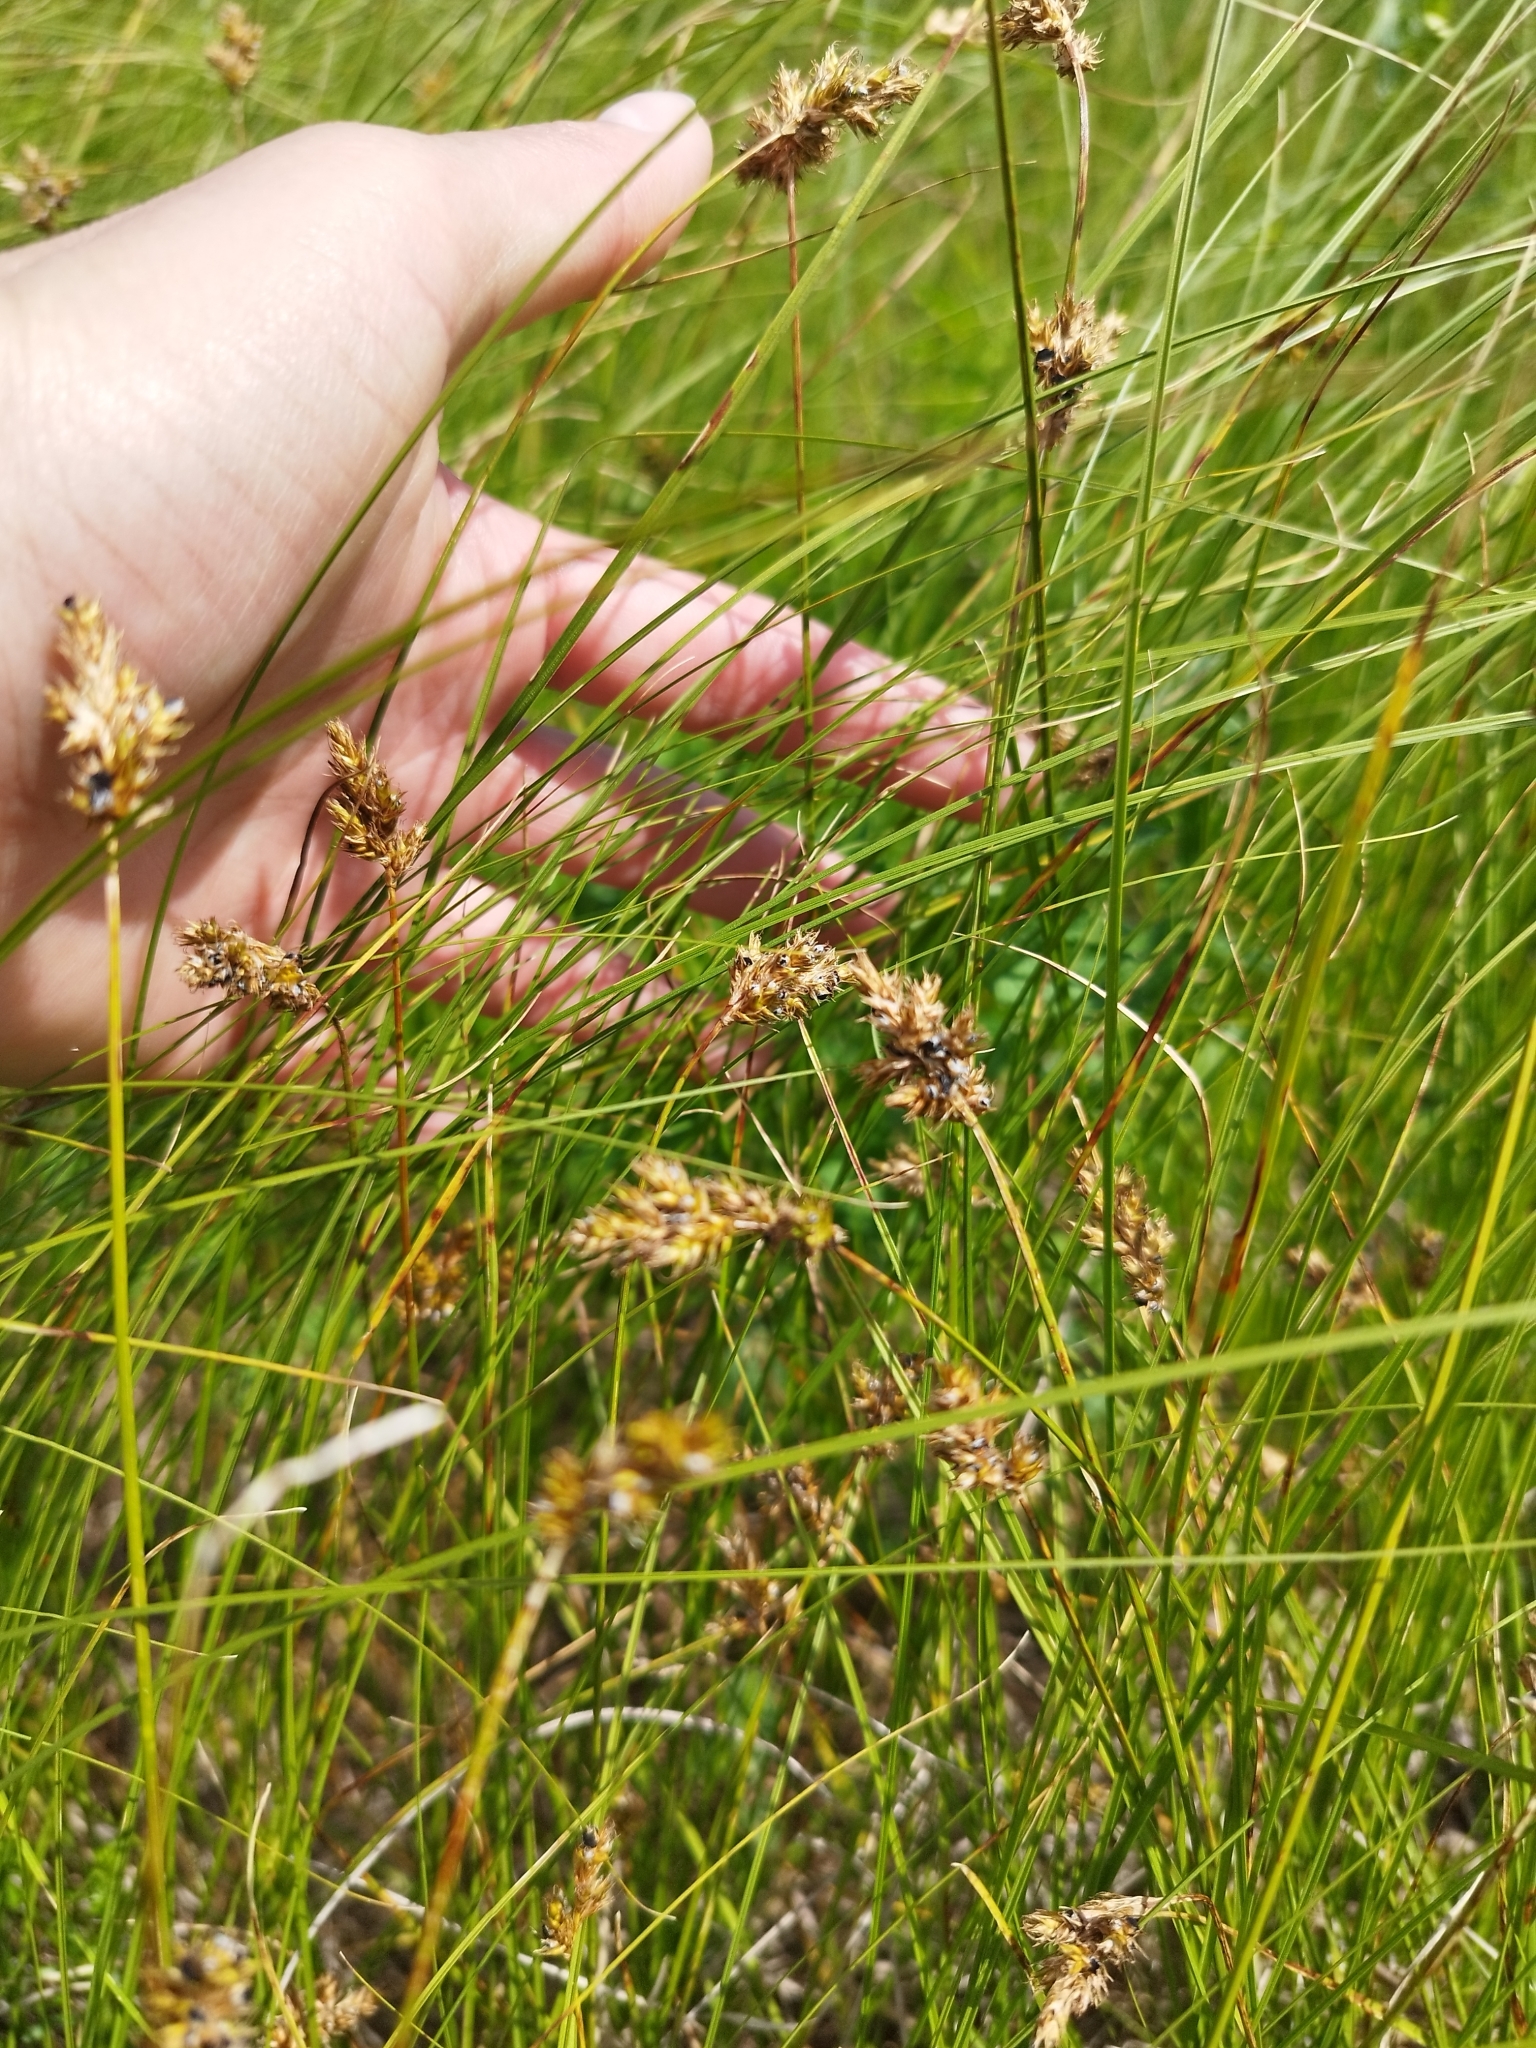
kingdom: Plantae
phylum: Tracheophyta
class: Liliopsida
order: Poales
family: Cyperaceae
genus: Carex
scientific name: Carex praecox
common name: Early sedge
